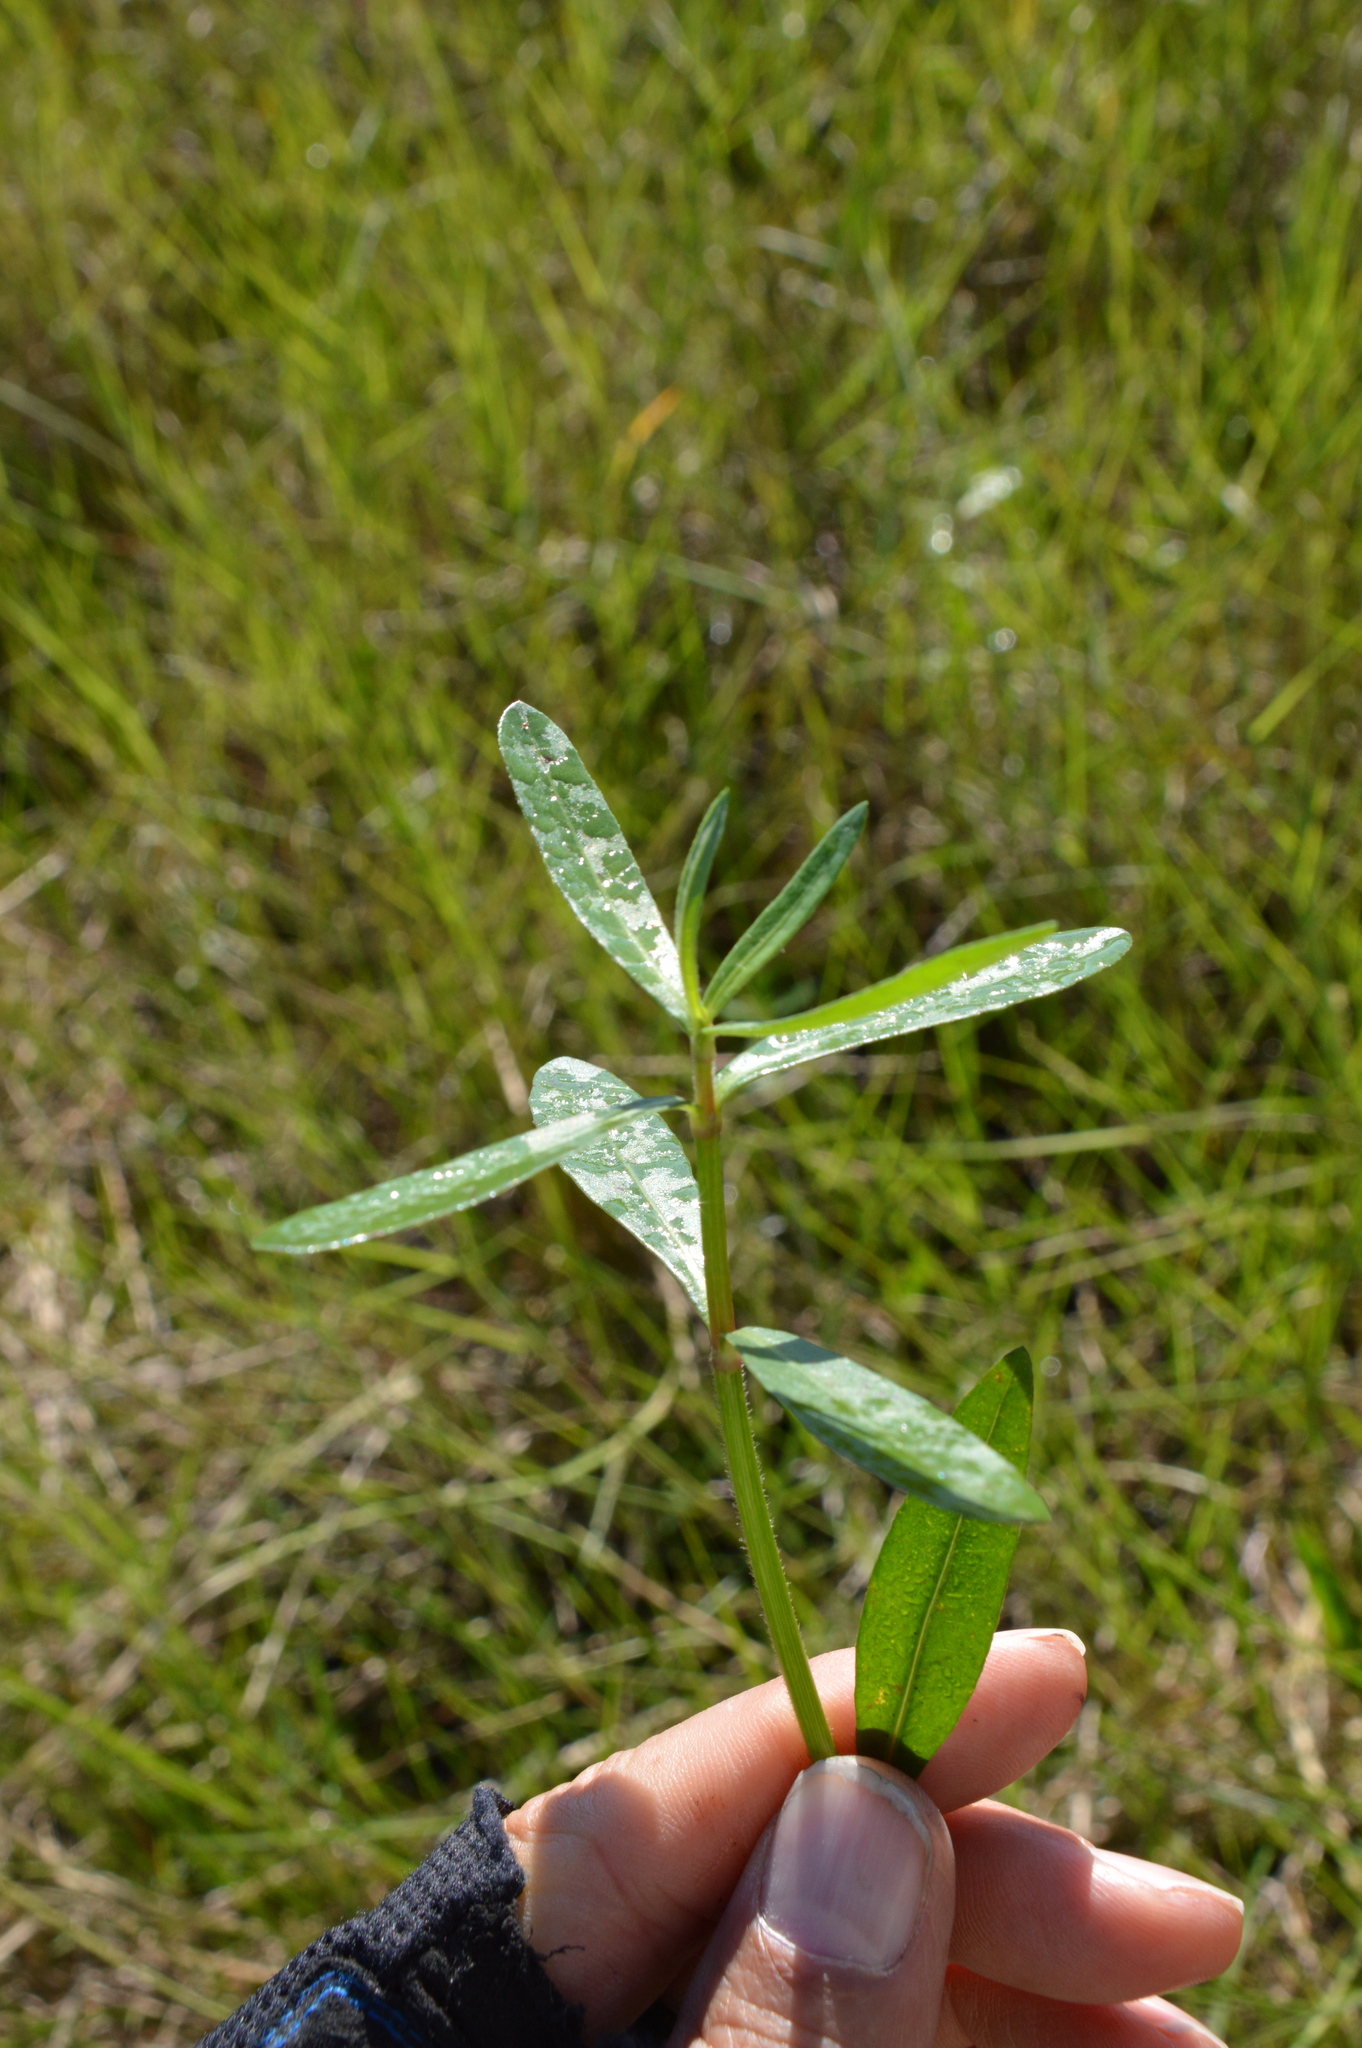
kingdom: Plantae
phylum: Tracheophyta
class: Magnoliopsida
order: Caryophyllales
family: Amaranthaceae
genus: Alternanthera
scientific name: Alternanthera philoxeroides
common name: Alligatorweed
